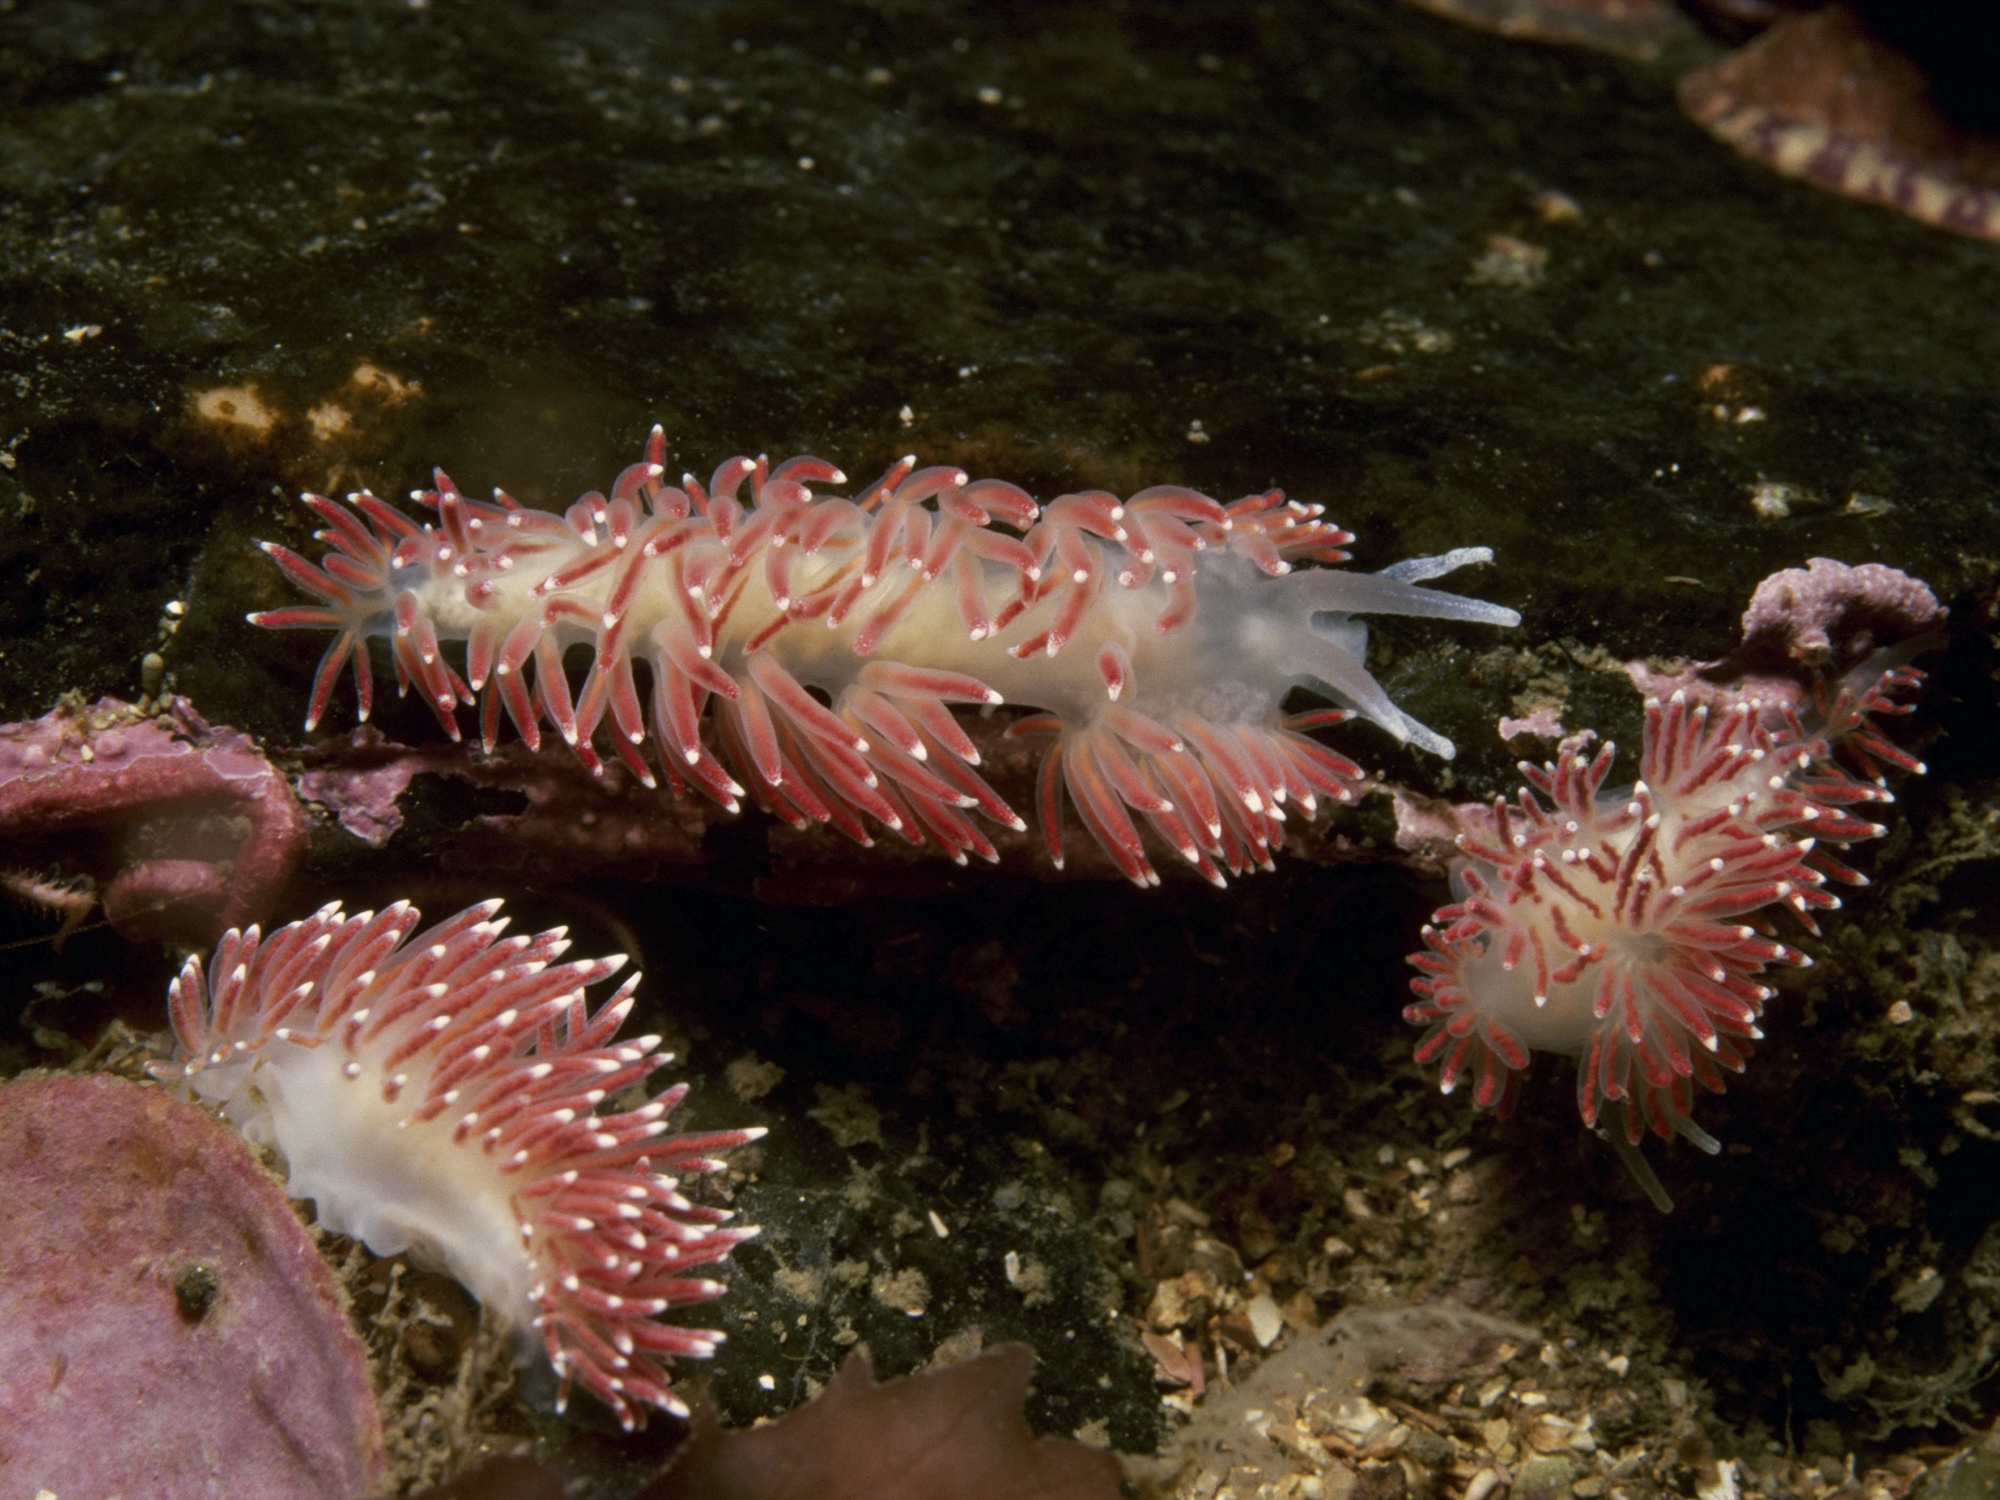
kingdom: Animalia
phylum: Mollusca
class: Gastropoda
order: Nudibranchia
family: Flabellinidae
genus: Carronella
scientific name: Carronella pellucida
